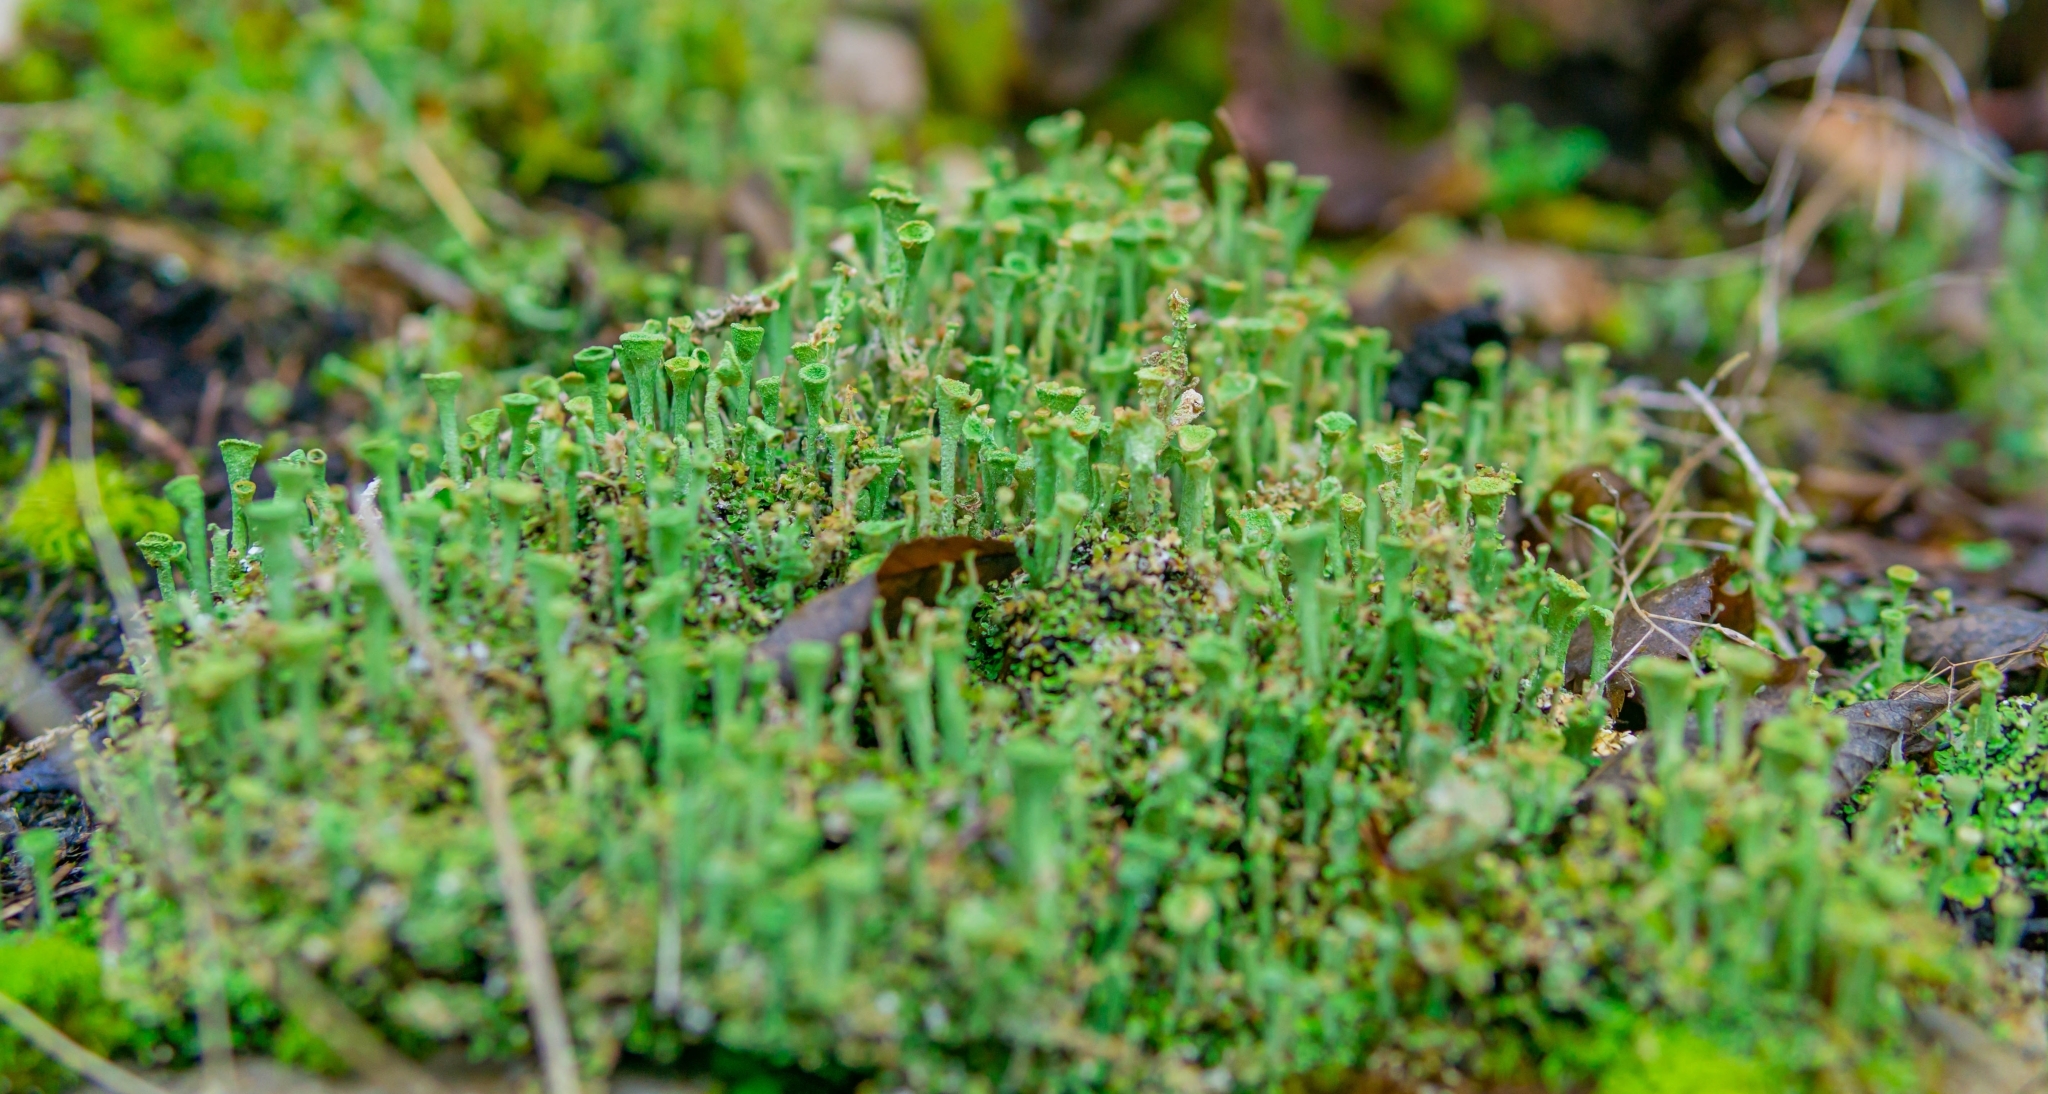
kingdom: Fungi
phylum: Ascomycota
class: Lecanoromycetes
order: Lecanorales
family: Cladoniaceae
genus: Cladonia
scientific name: Cladonia fimbriata
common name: Powdered trumpet lichen
